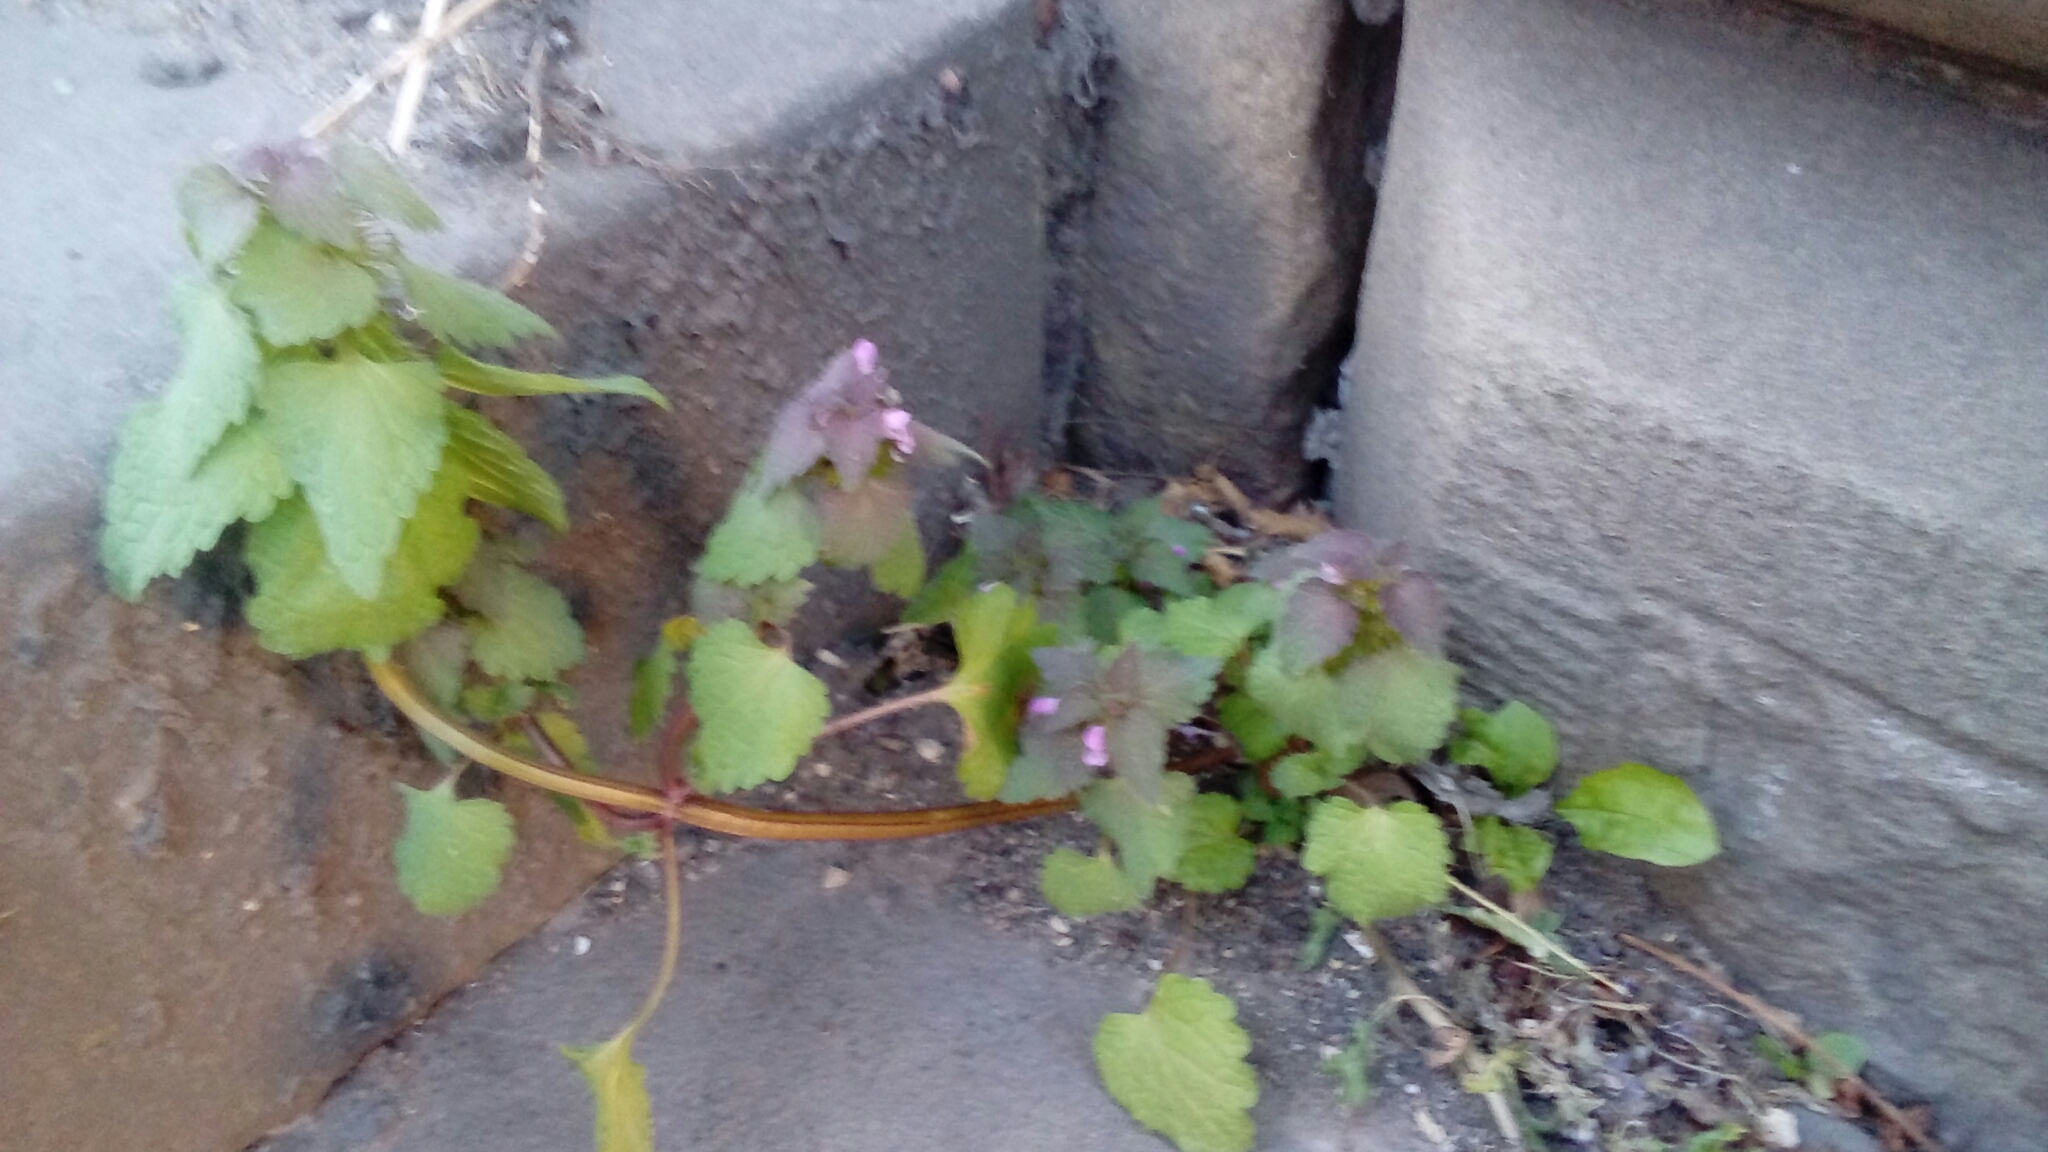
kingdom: Plantae
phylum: Tracheophyta
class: Magnoliopsida
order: Lamiales
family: Lamiaceae
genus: Lamium
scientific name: Lamium purpureum
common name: Red dead-nettle
